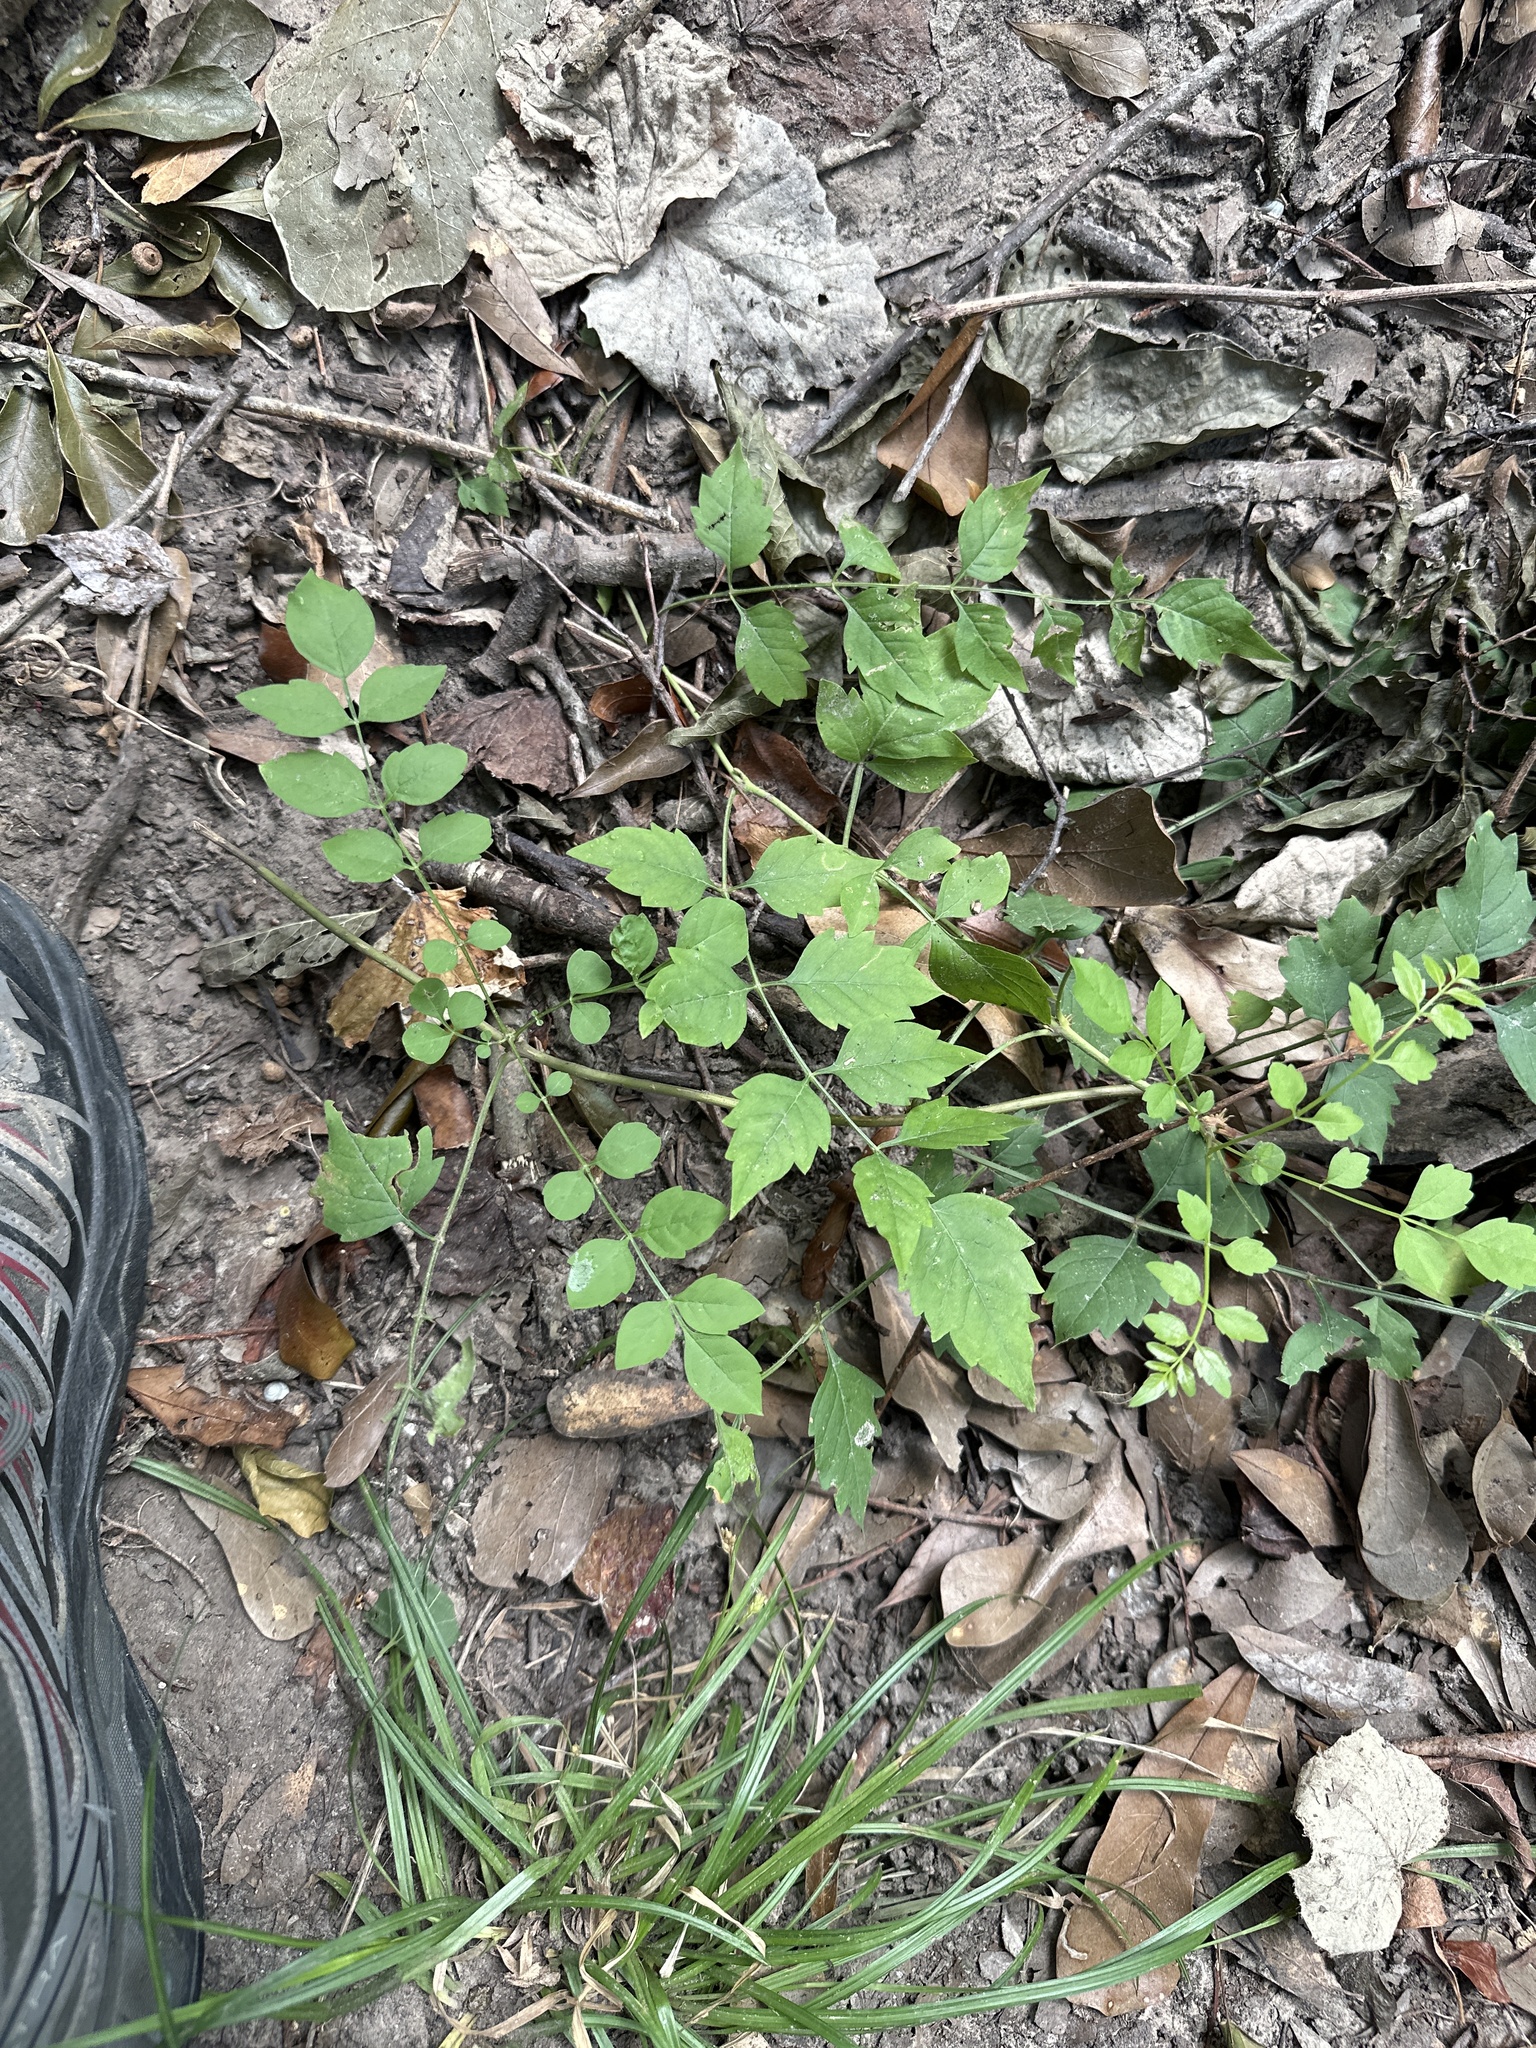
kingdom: Plantae
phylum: Tracheophyta
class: Magnoliopsida
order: Lamiales
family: Bignoniaceae
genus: Campsis
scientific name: Campsis radicans
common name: Trumpet-creeper
